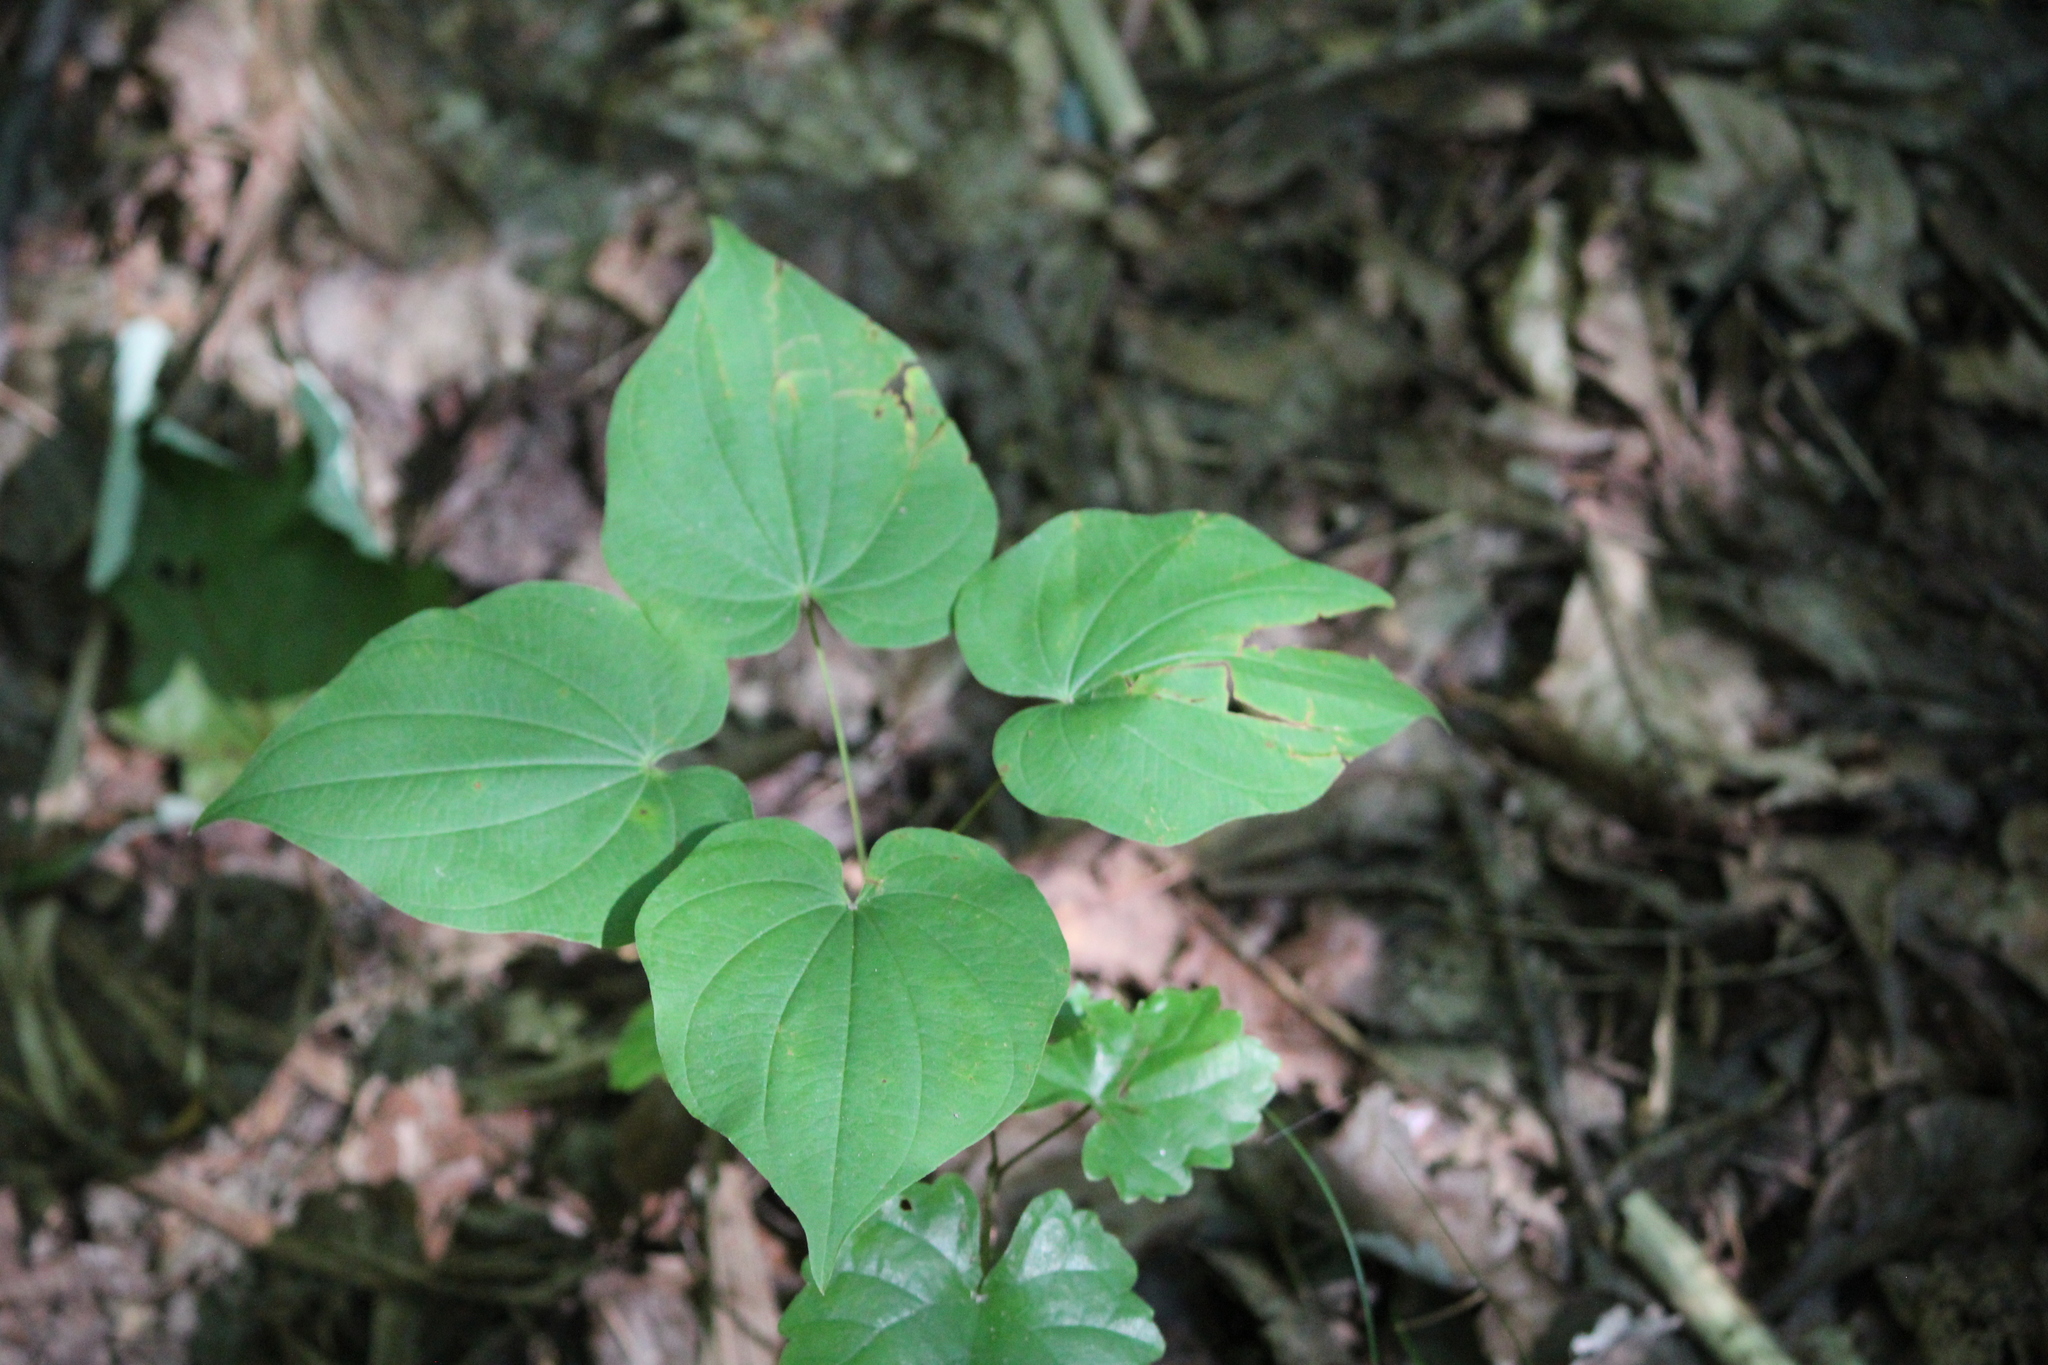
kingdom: Plantae
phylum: Tracheophyta
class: Liliopsida
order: Dioscoreales
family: Dioscoreaceae
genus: Dioscorea
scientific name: Dioscorea villosa
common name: Wild yam
